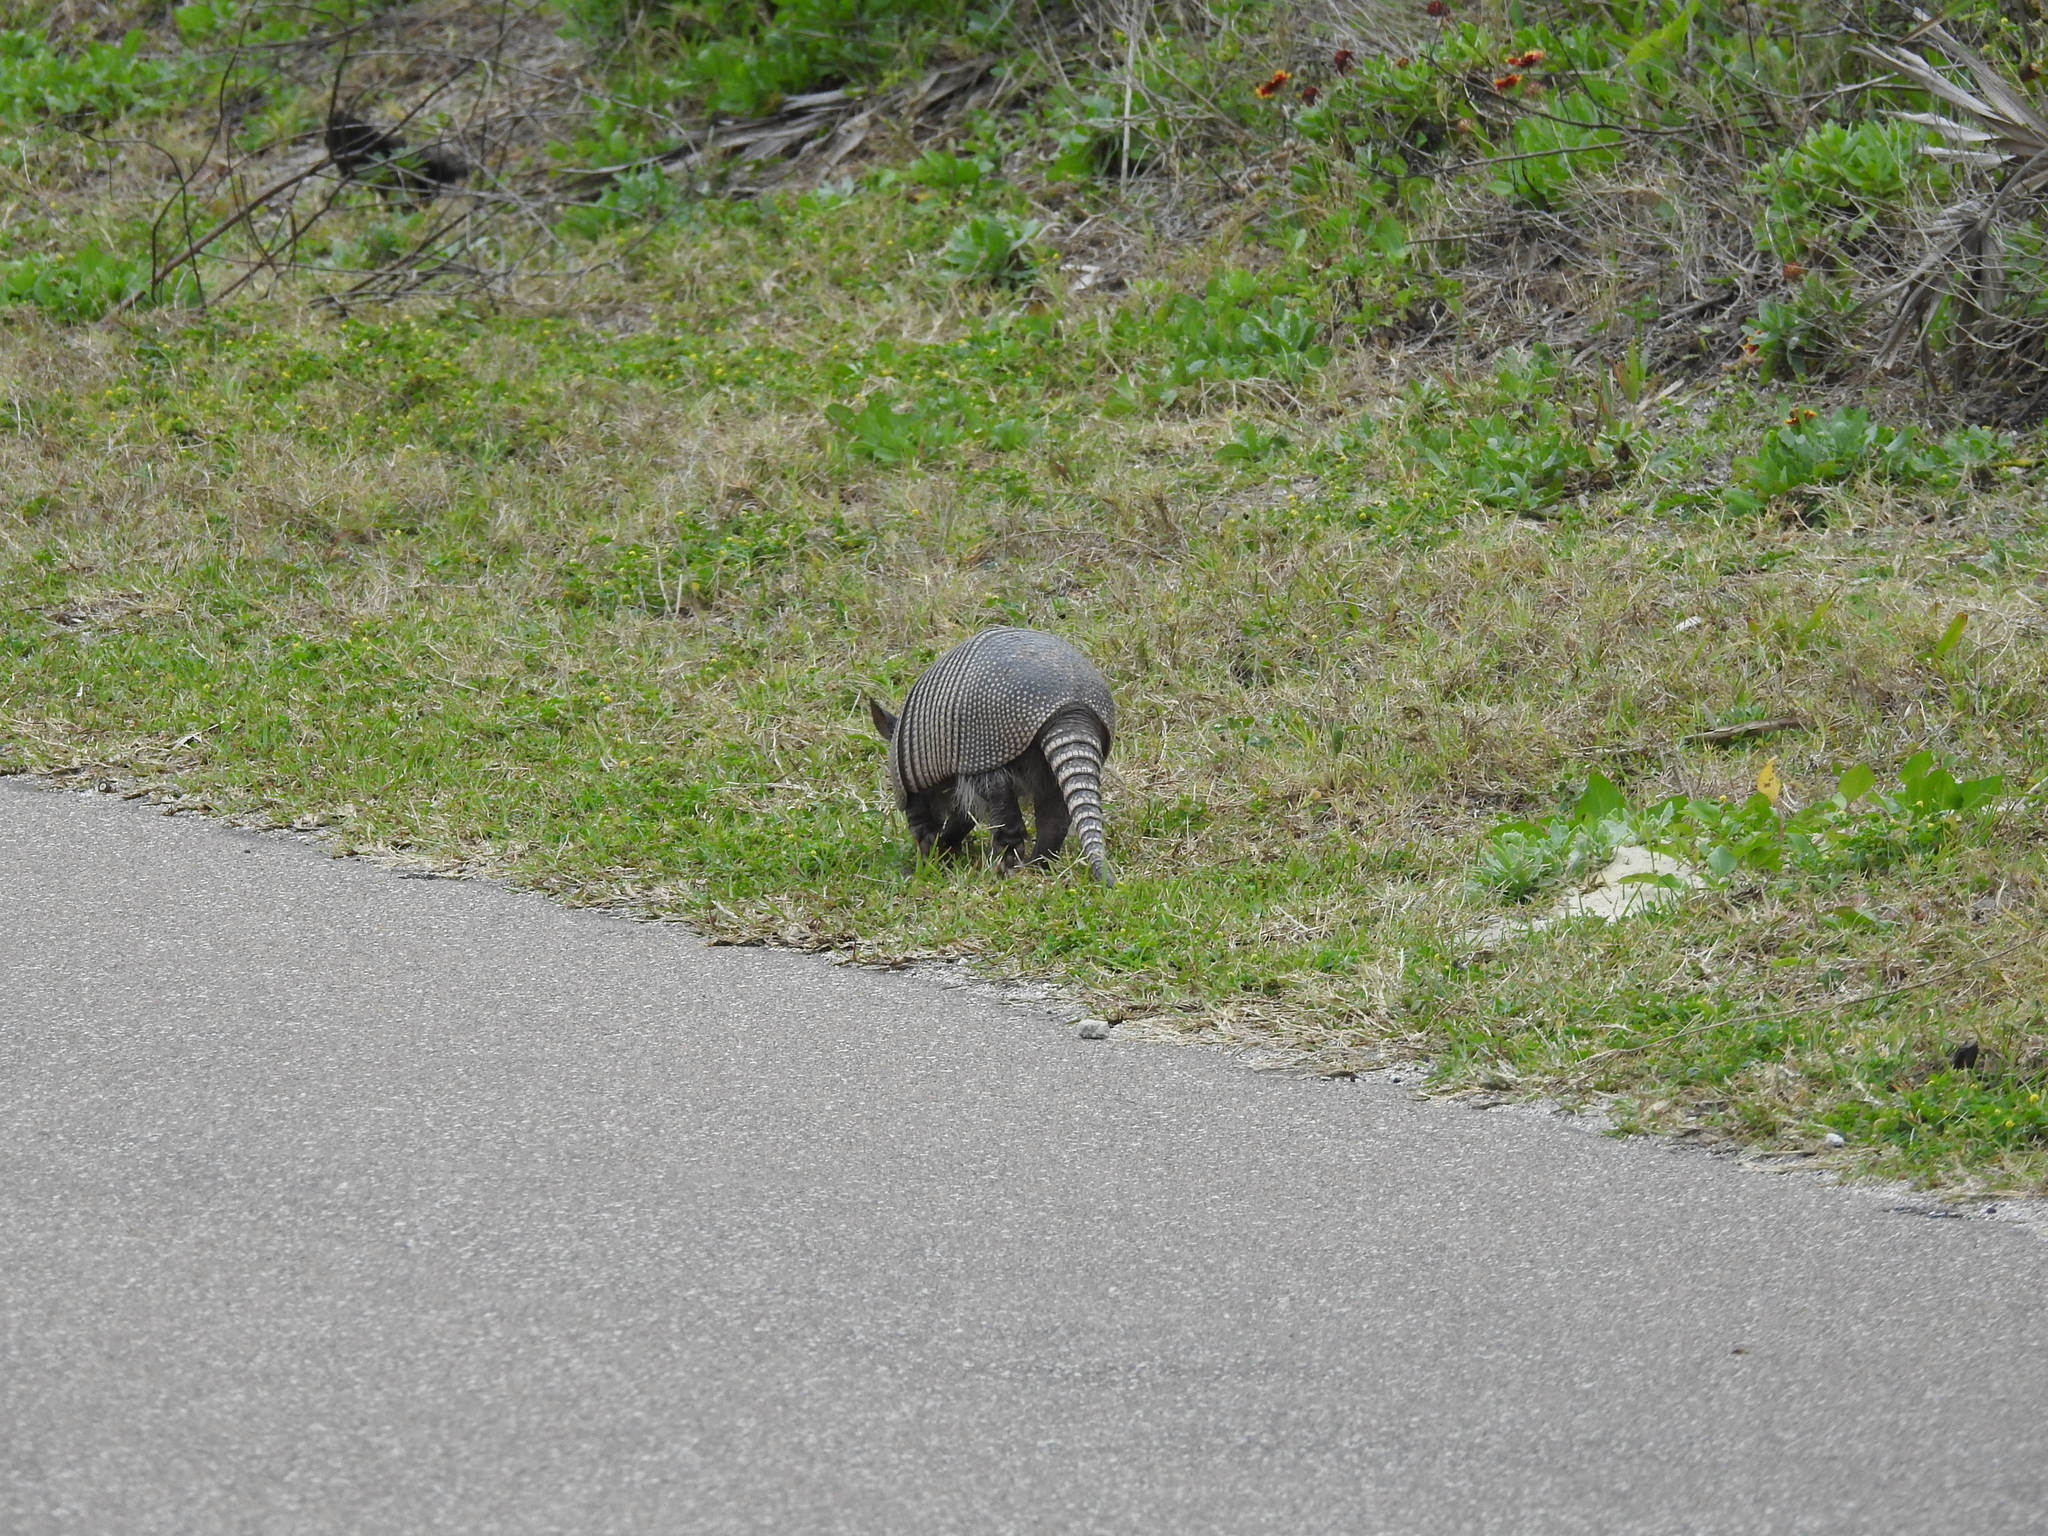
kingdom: Animalia
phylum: Chordata
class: Mammalia
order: Cingulata
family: Dasypodidae
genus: Dasypus
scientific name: Dasypus novemcinctus
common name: Nine-banded armadillo
